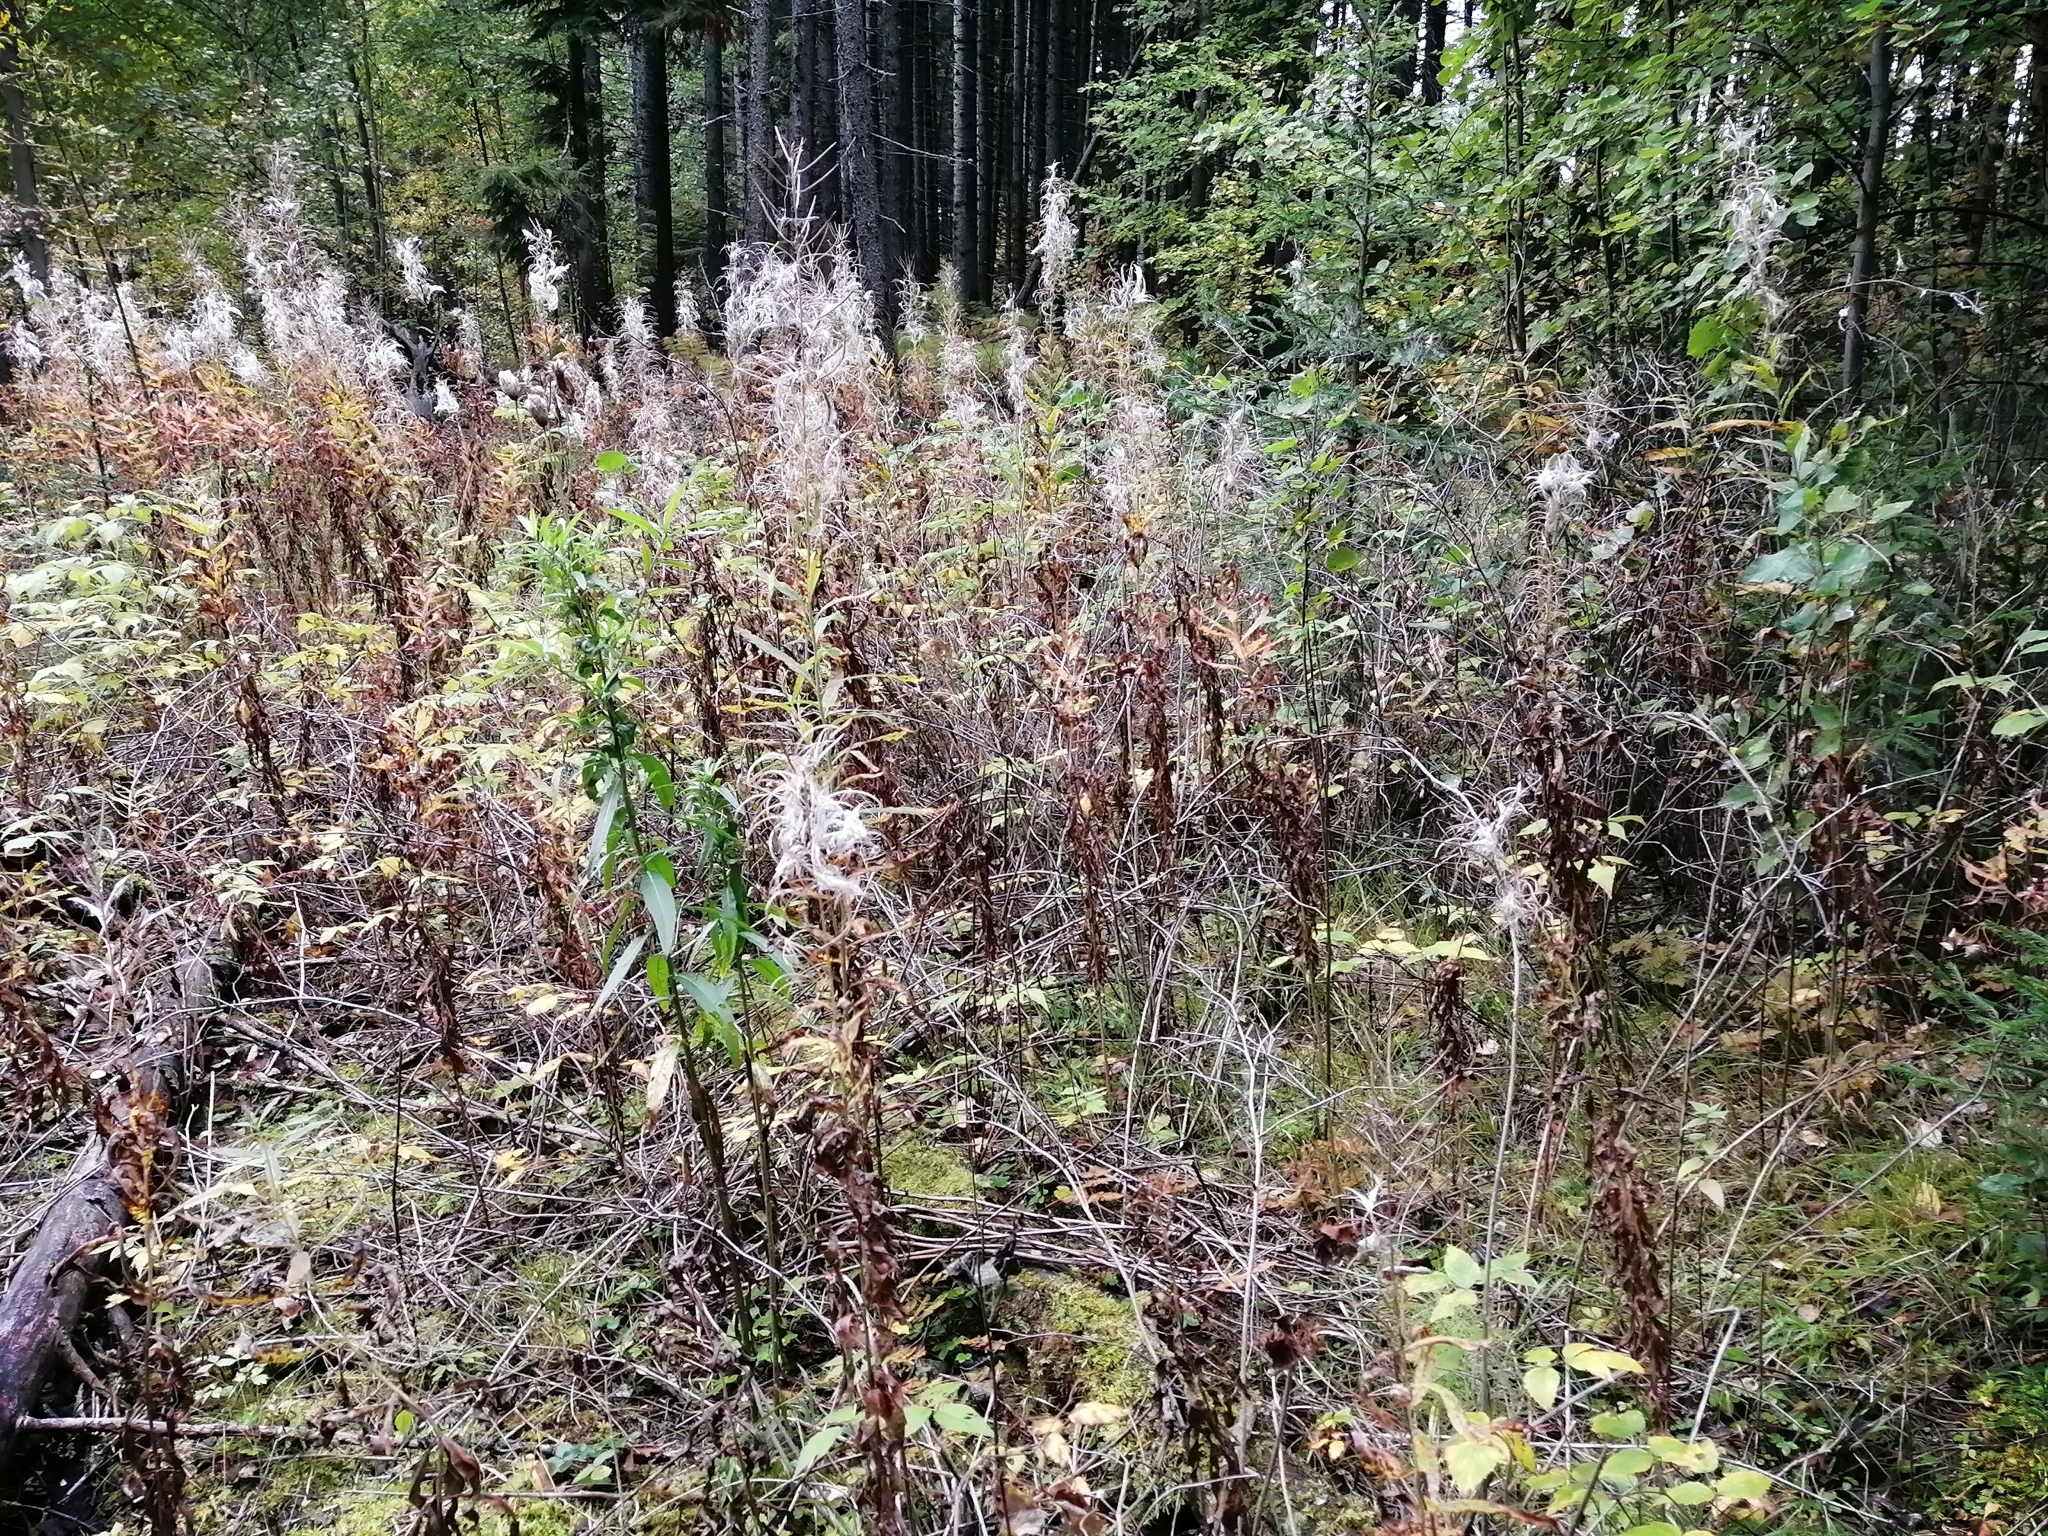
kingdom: Plantae
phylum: Tracheophyta
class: Magnoliopsida
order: Myrtales
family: Onagraceae
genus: Chamaenerion
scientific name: Chamaenerion angustifolium
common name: Fireweed
